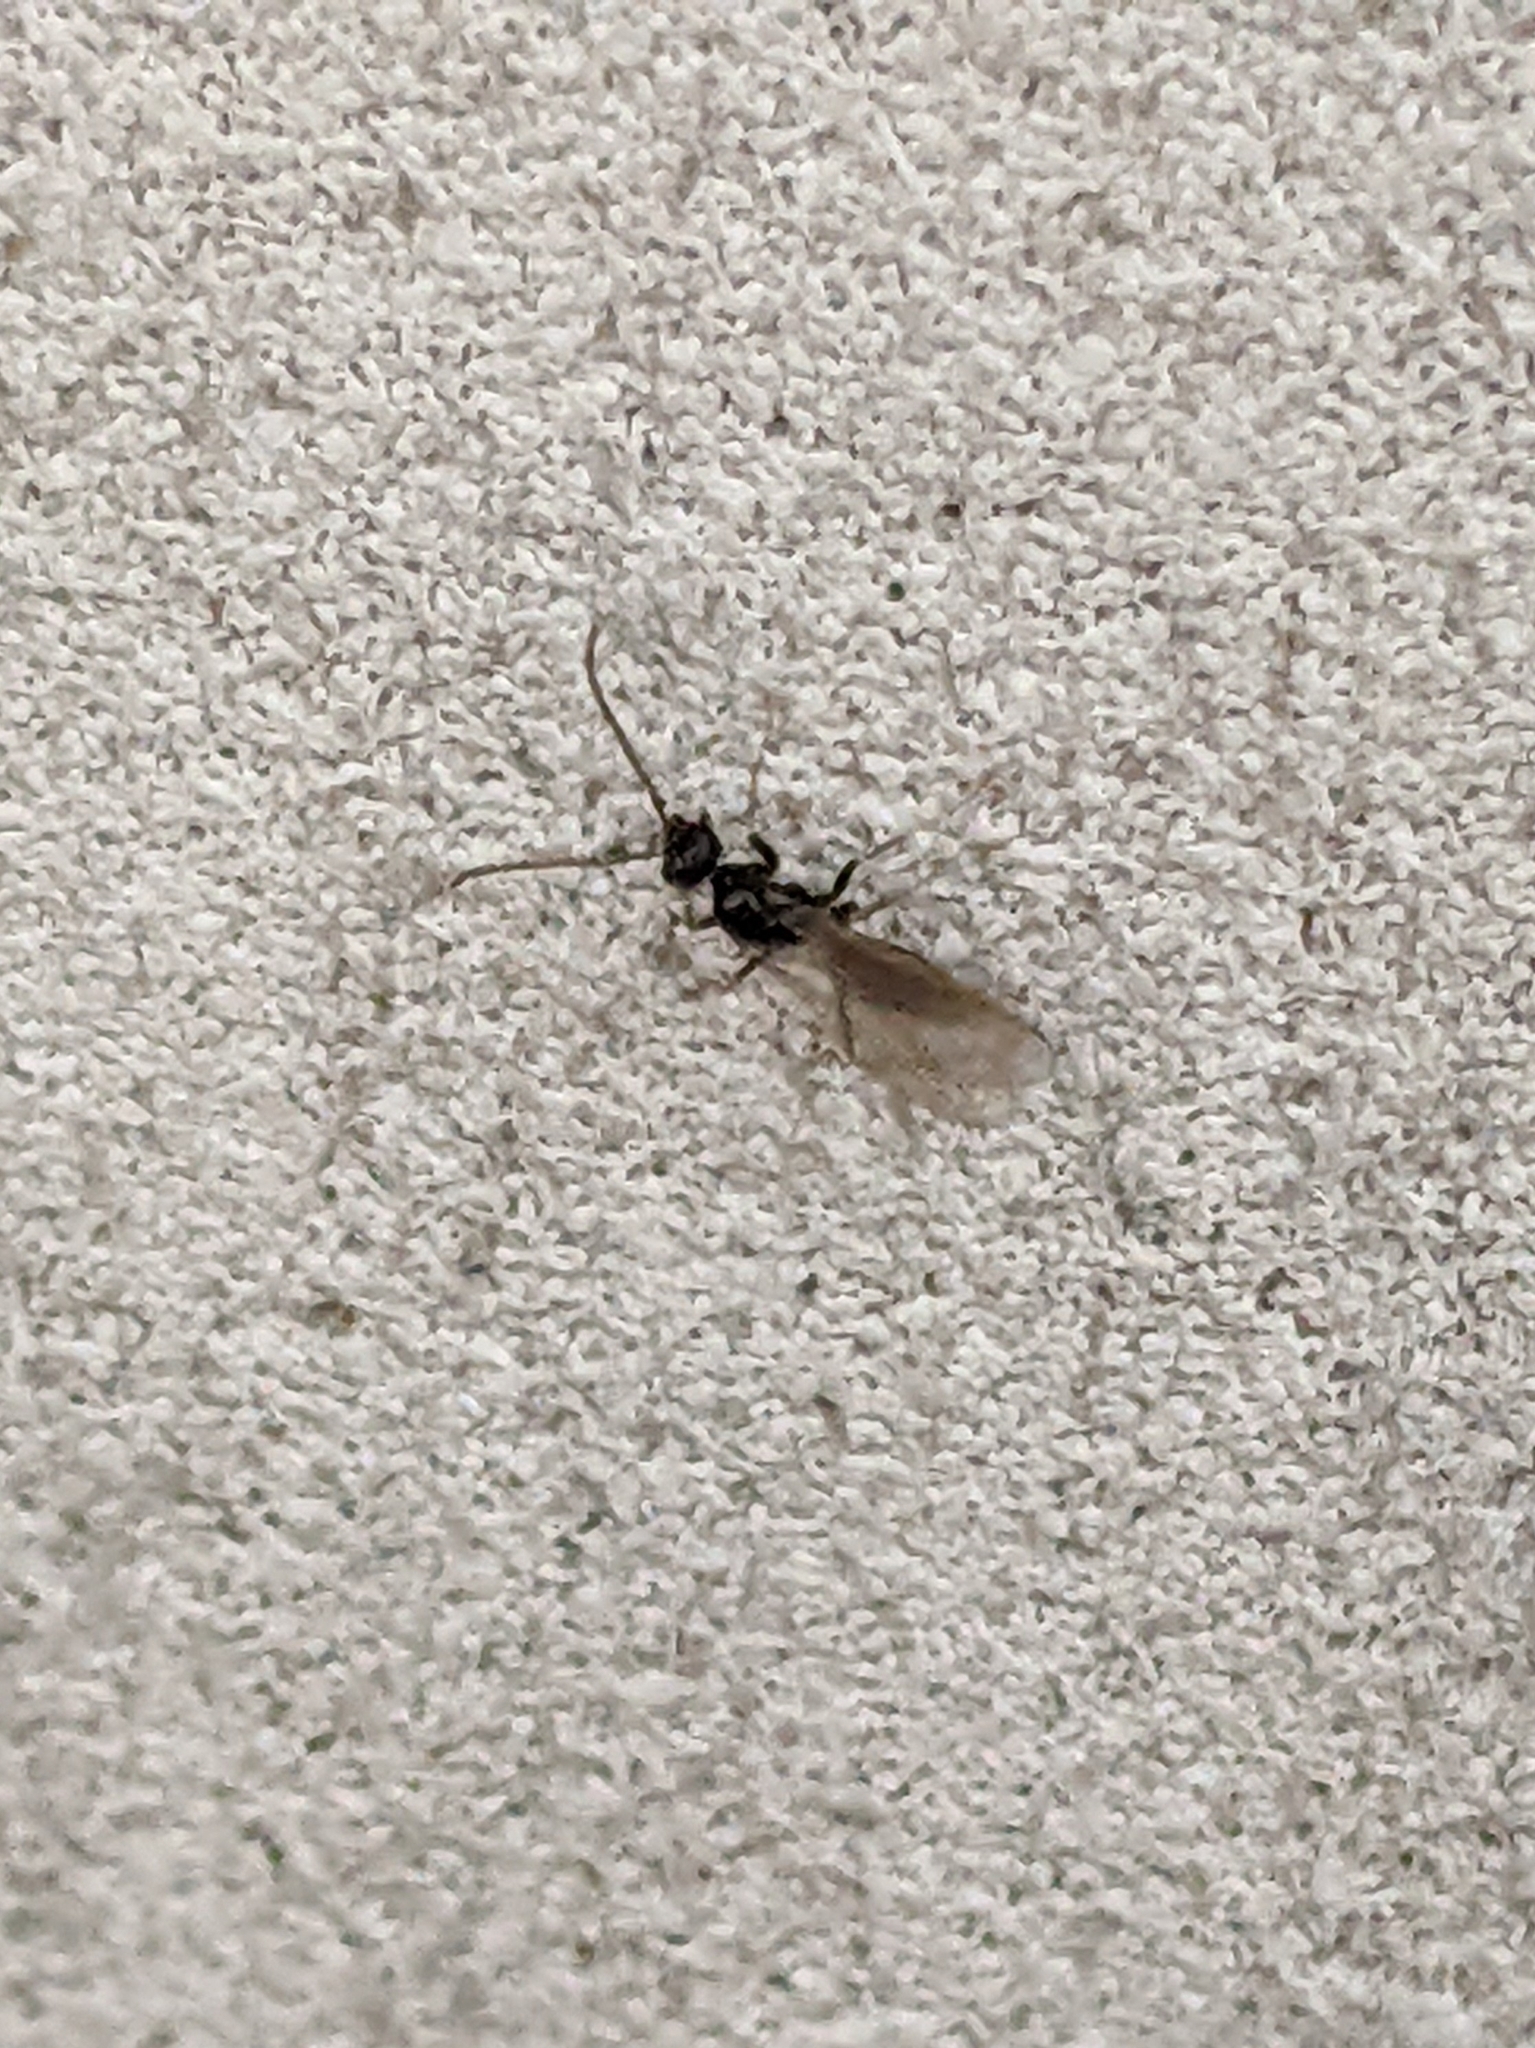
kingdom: Animalia
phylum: Arthropoda
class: Insecta
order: Hymenoptera
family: Formicidae
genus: Prenolepis
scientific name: Prenolepis imparis
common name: Small honey ant
